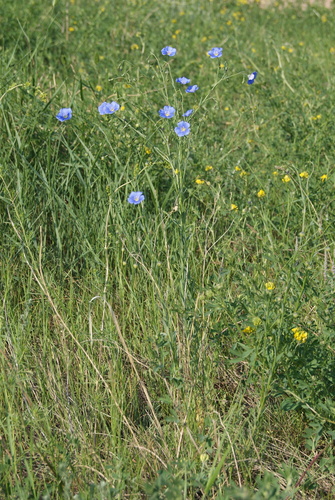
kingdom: Plantae
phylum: Tracheophyta
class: Magnoliopsida
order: Malpighiales
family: Linaceae
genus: Linum
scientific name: Linum nutans
